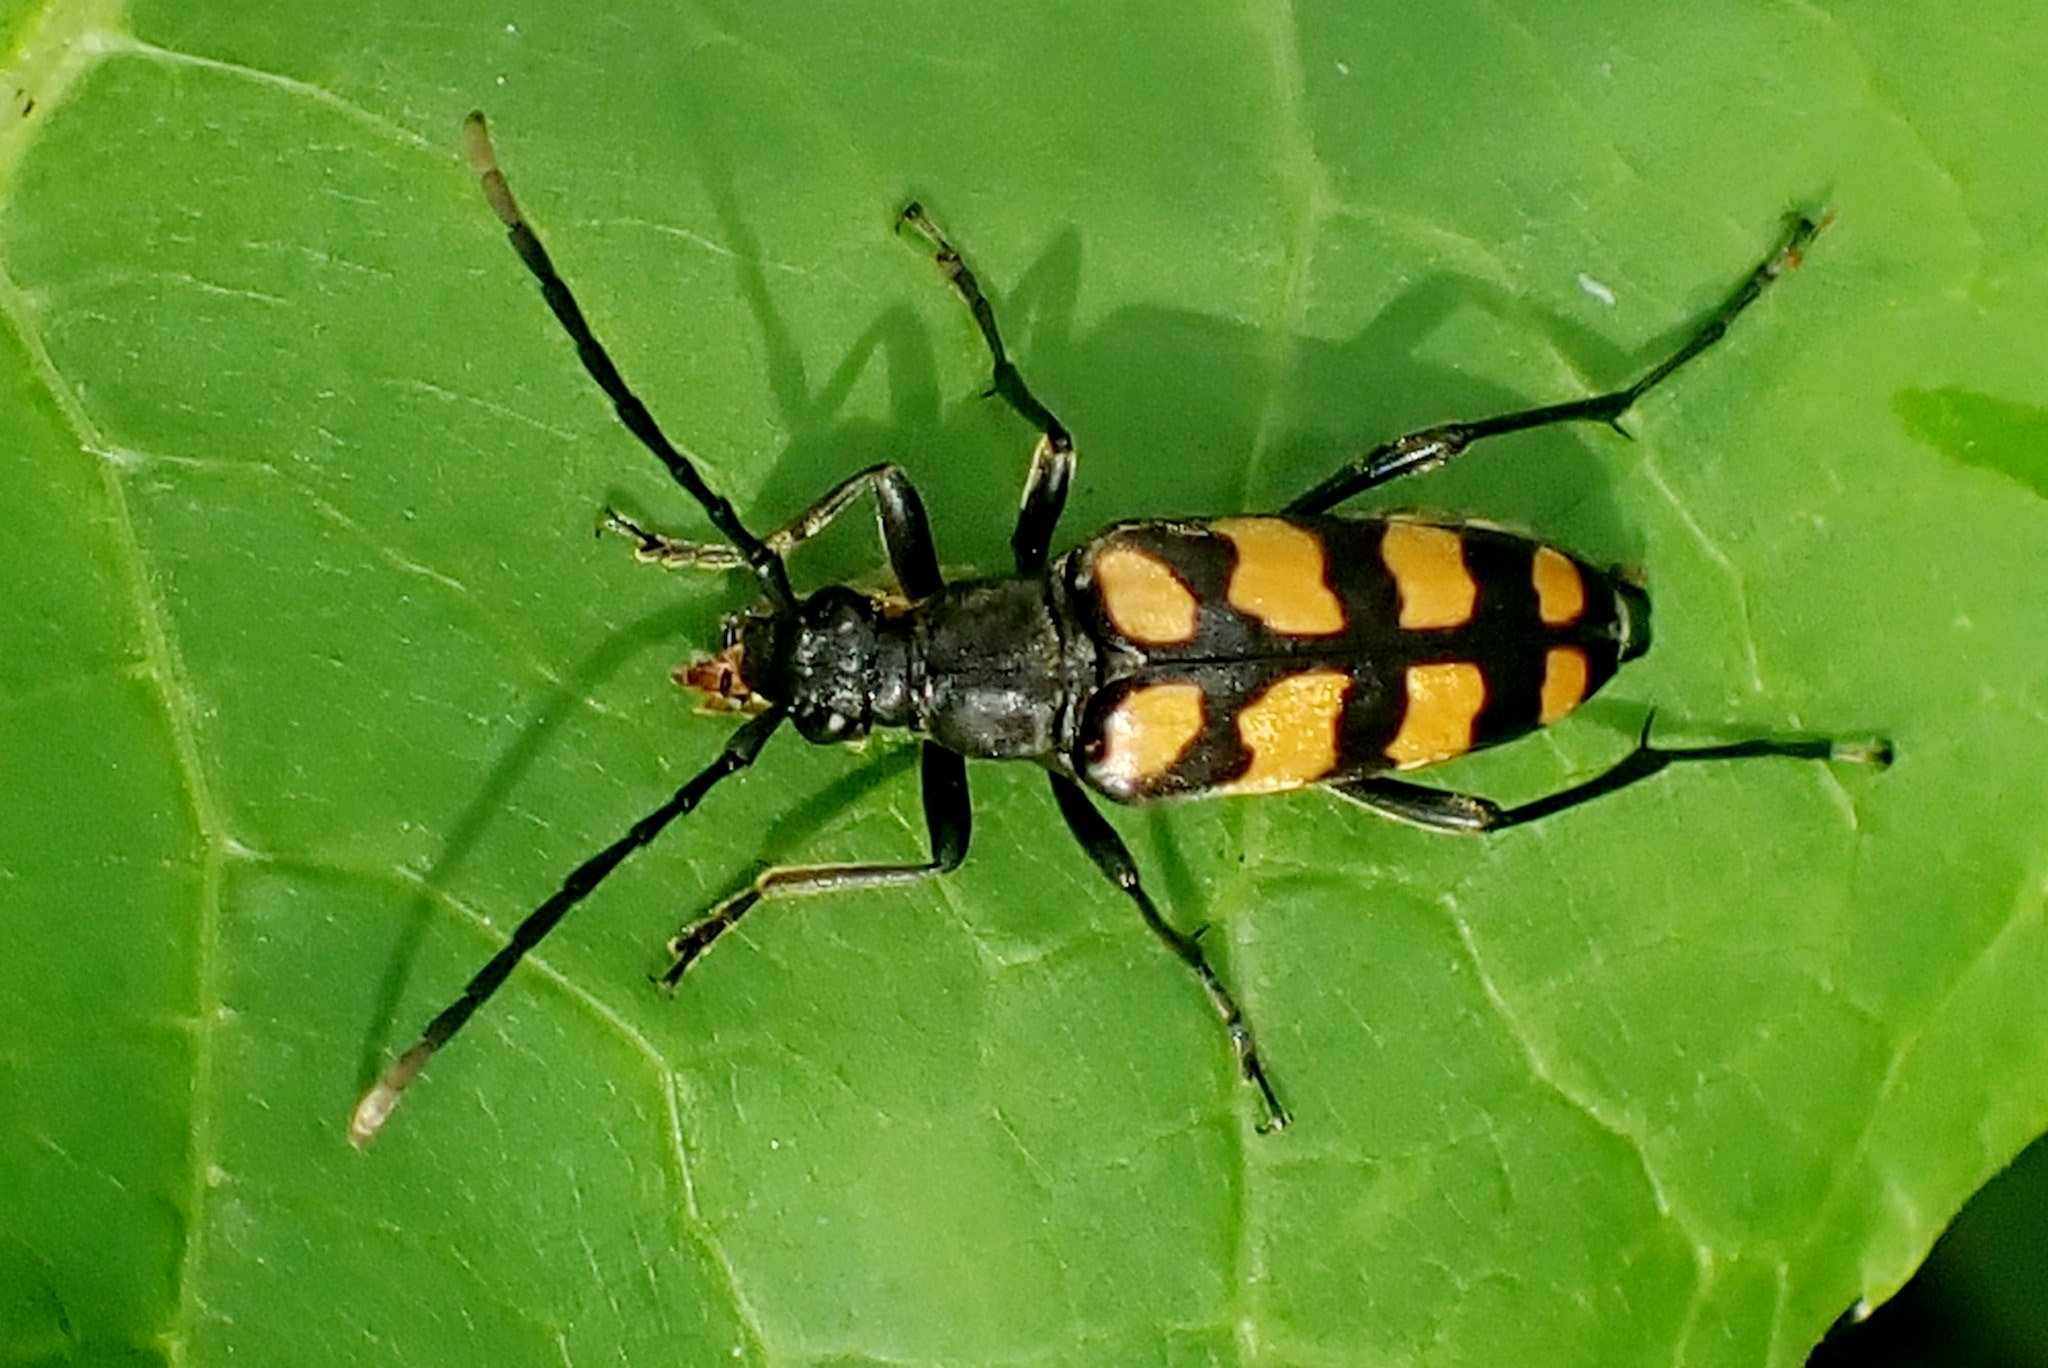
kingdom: Animalia
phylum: Arthropoda
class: Insecta
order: Coleoptera
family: Cerambycidae
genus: Leptura
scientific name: Leptura quadrifasciata
